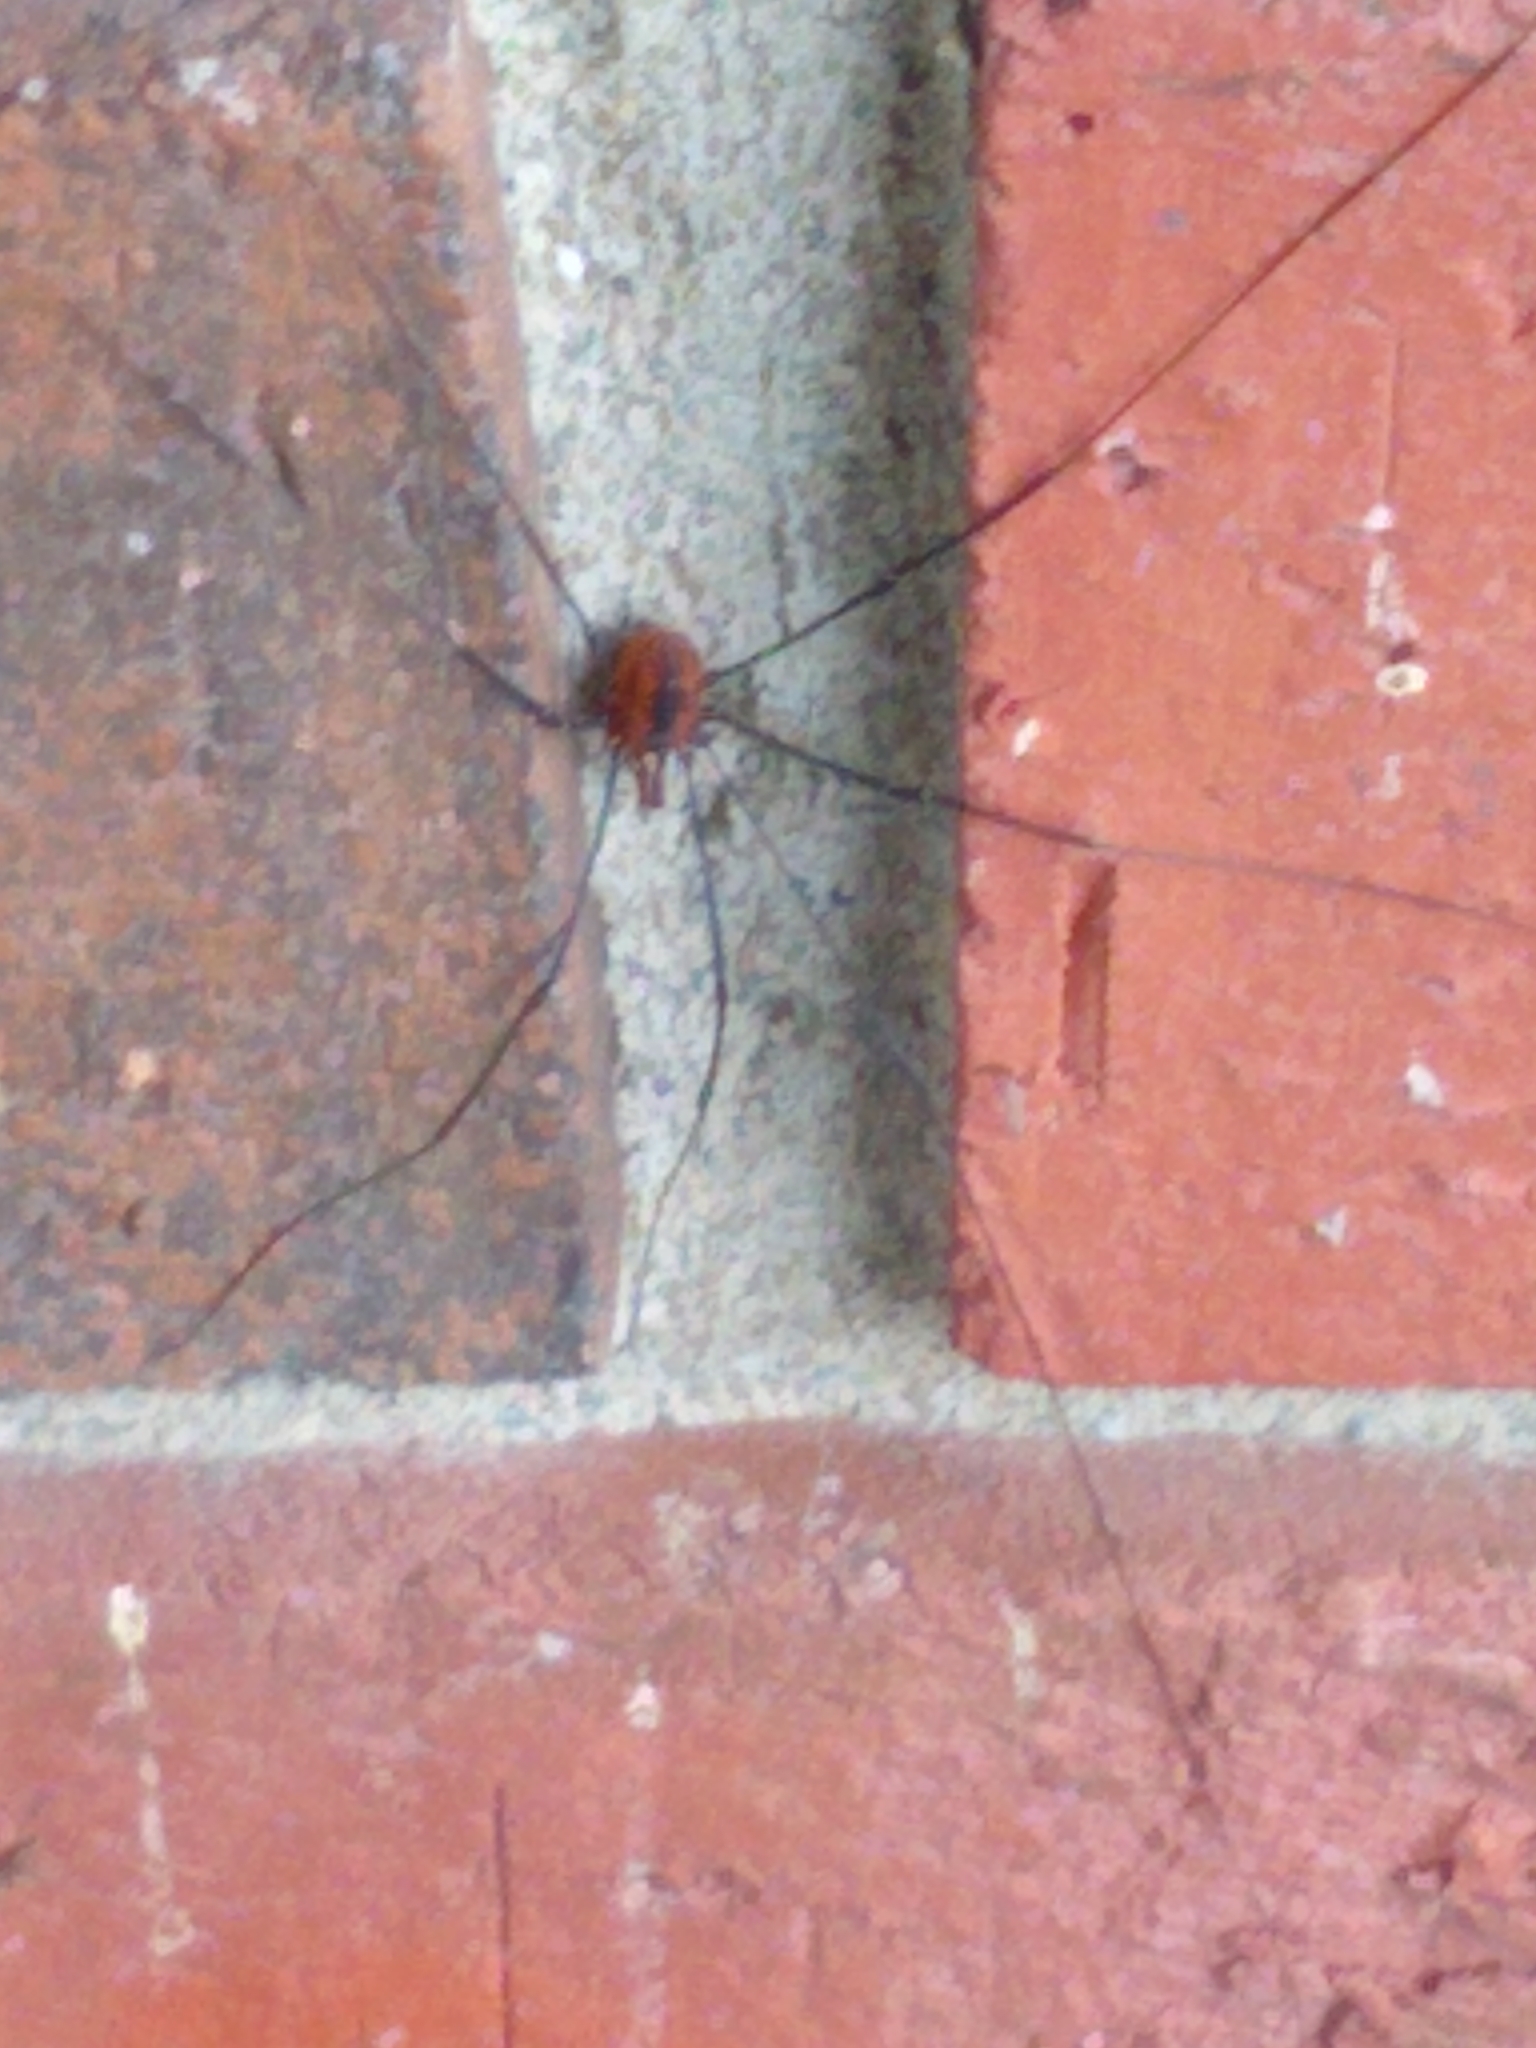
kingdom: Animalia
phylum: Arthropoda
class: Arachnida
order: Opiliones
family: Sclerosomatidae
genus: Leiobunum
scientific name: Leiobunum vittatum
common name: Eastern harvestman
